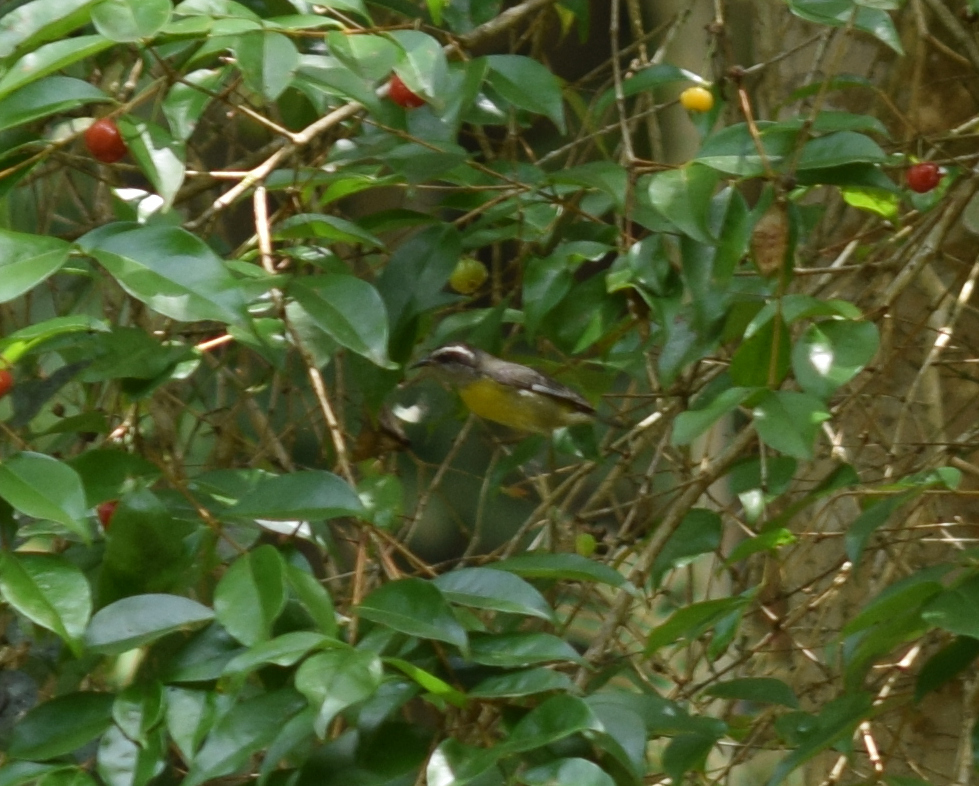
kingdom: Animalia
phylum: Chordata
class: Aves
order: Passeriformes
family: Thraupidae
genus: Coereba
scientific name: Coereba flaveola
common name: Bananaquit
